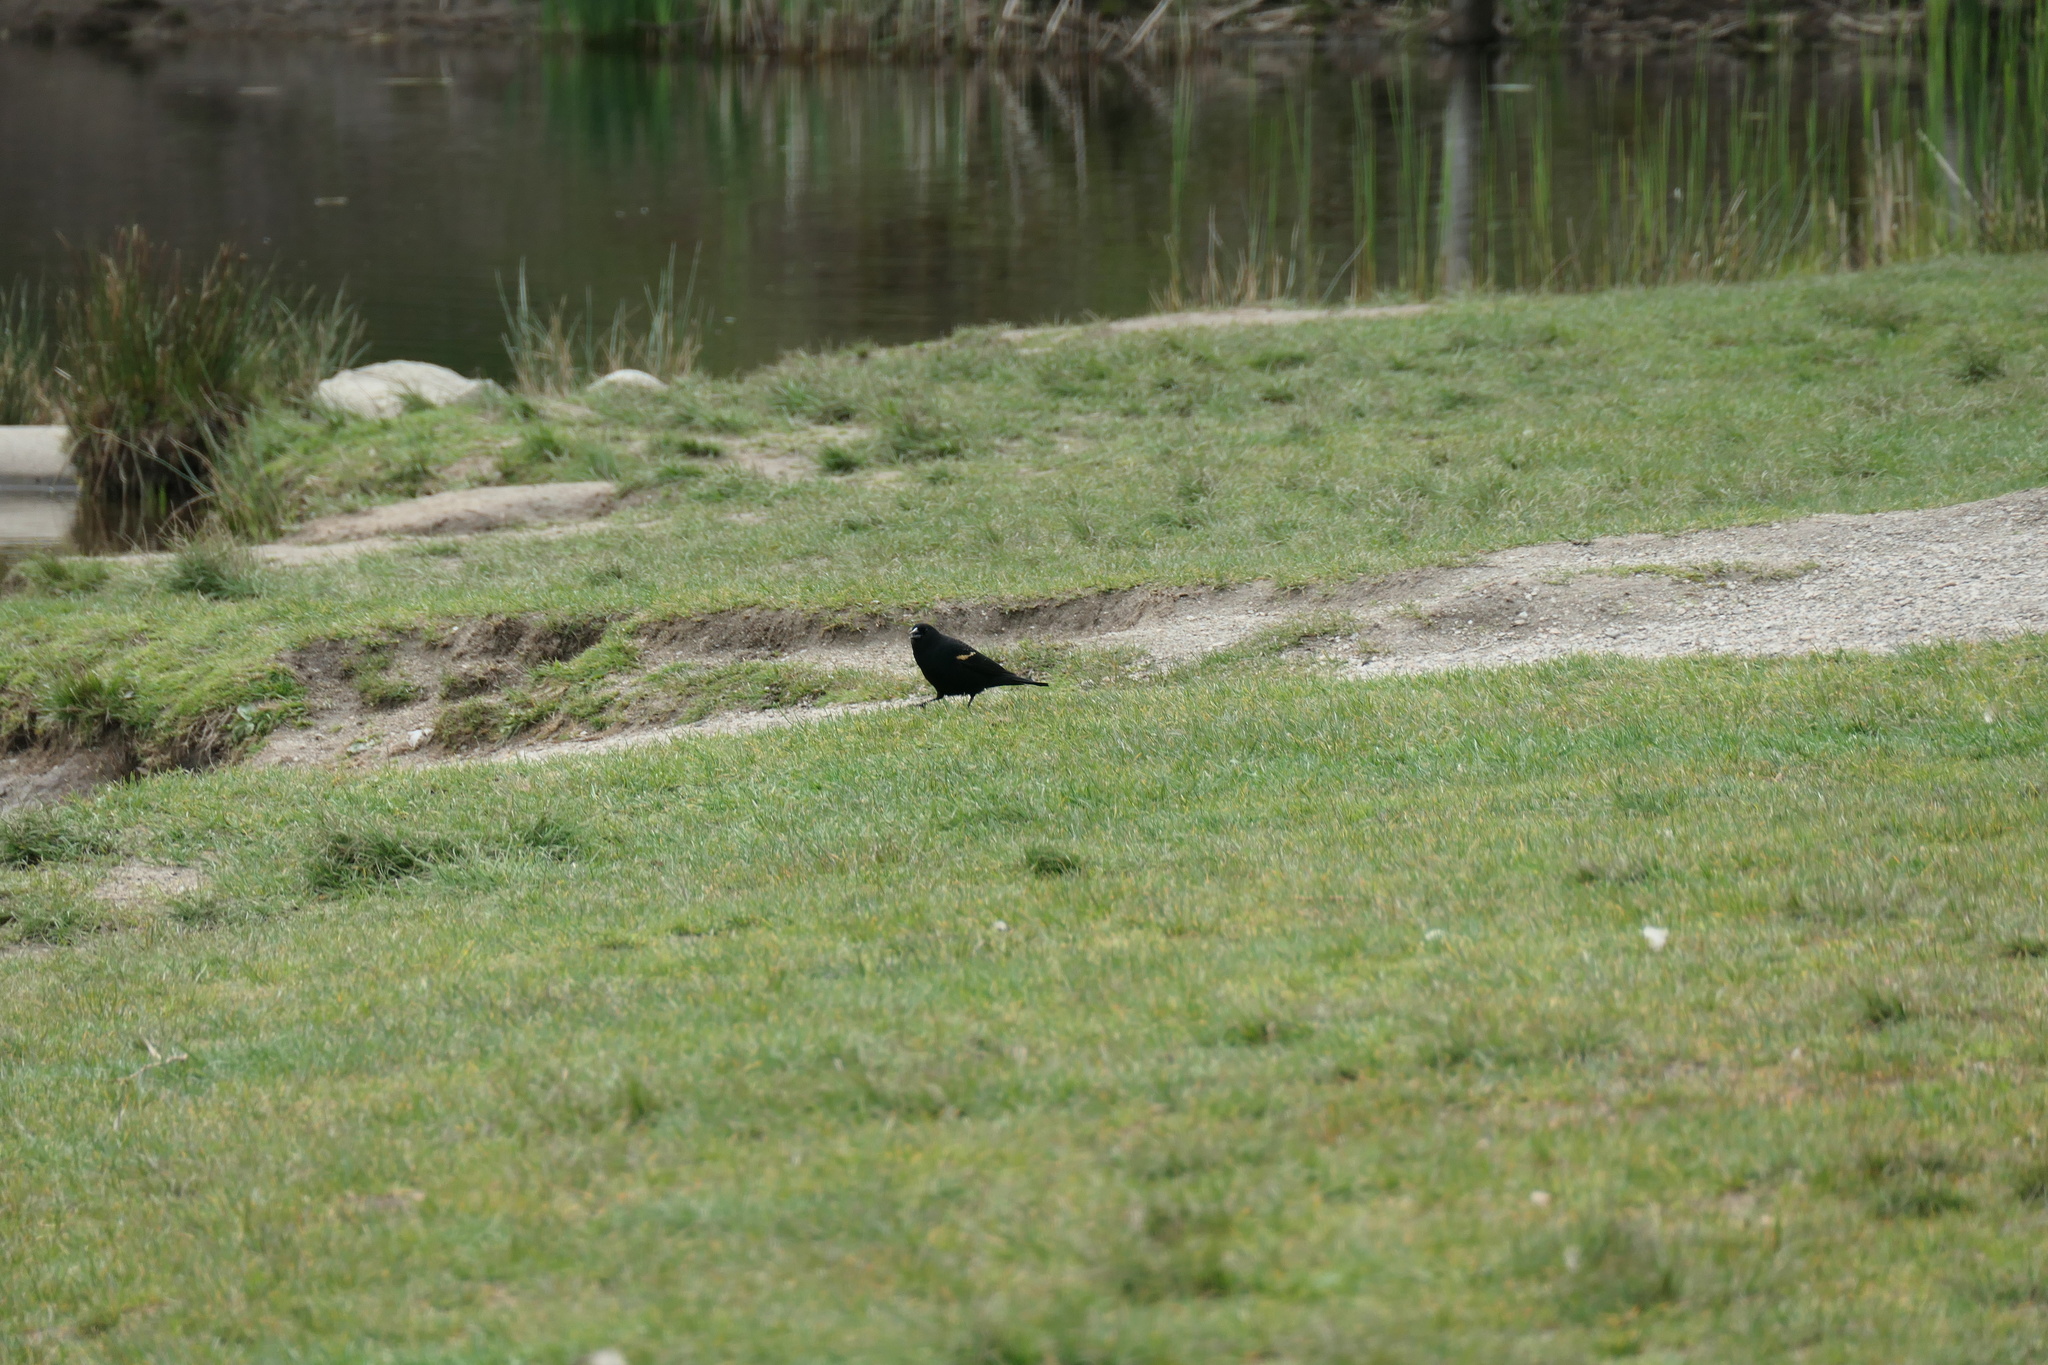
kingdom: Animalia
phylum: Chordata
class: Aves
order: Passeriformes
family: Icteridae
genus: Agelaius
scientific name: Agelaius phoeniceus
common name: Red-winged blackbird
